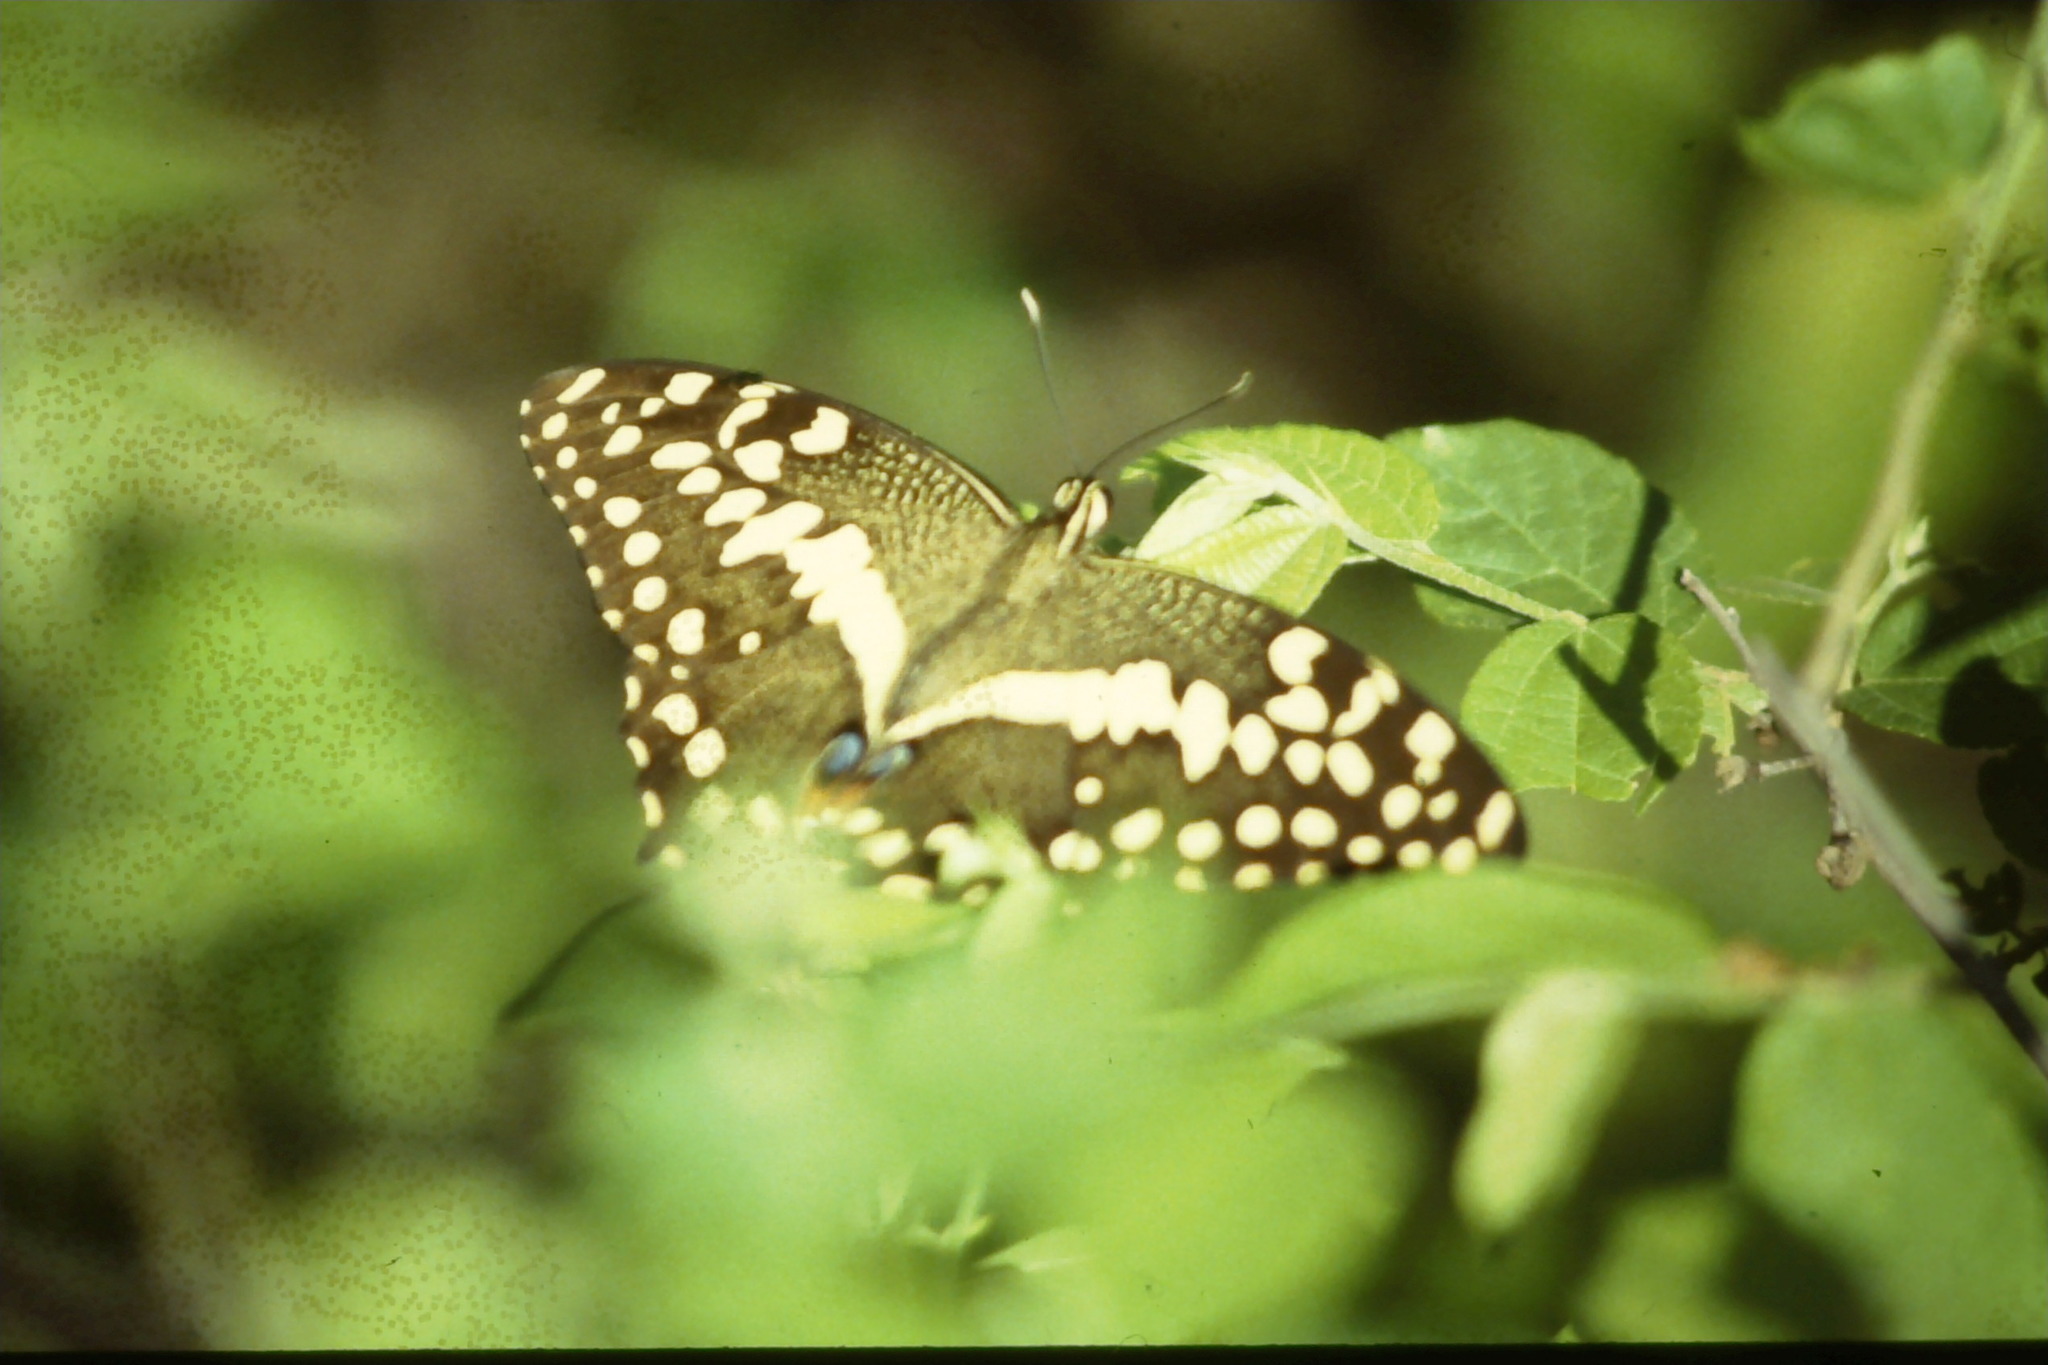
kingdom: Animalia
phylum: Arthropoda
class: Insecta
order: Lepidoptera
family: Papilionidae
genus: Papilio
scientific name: Papilio demodocus
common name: Christmas butterfly
